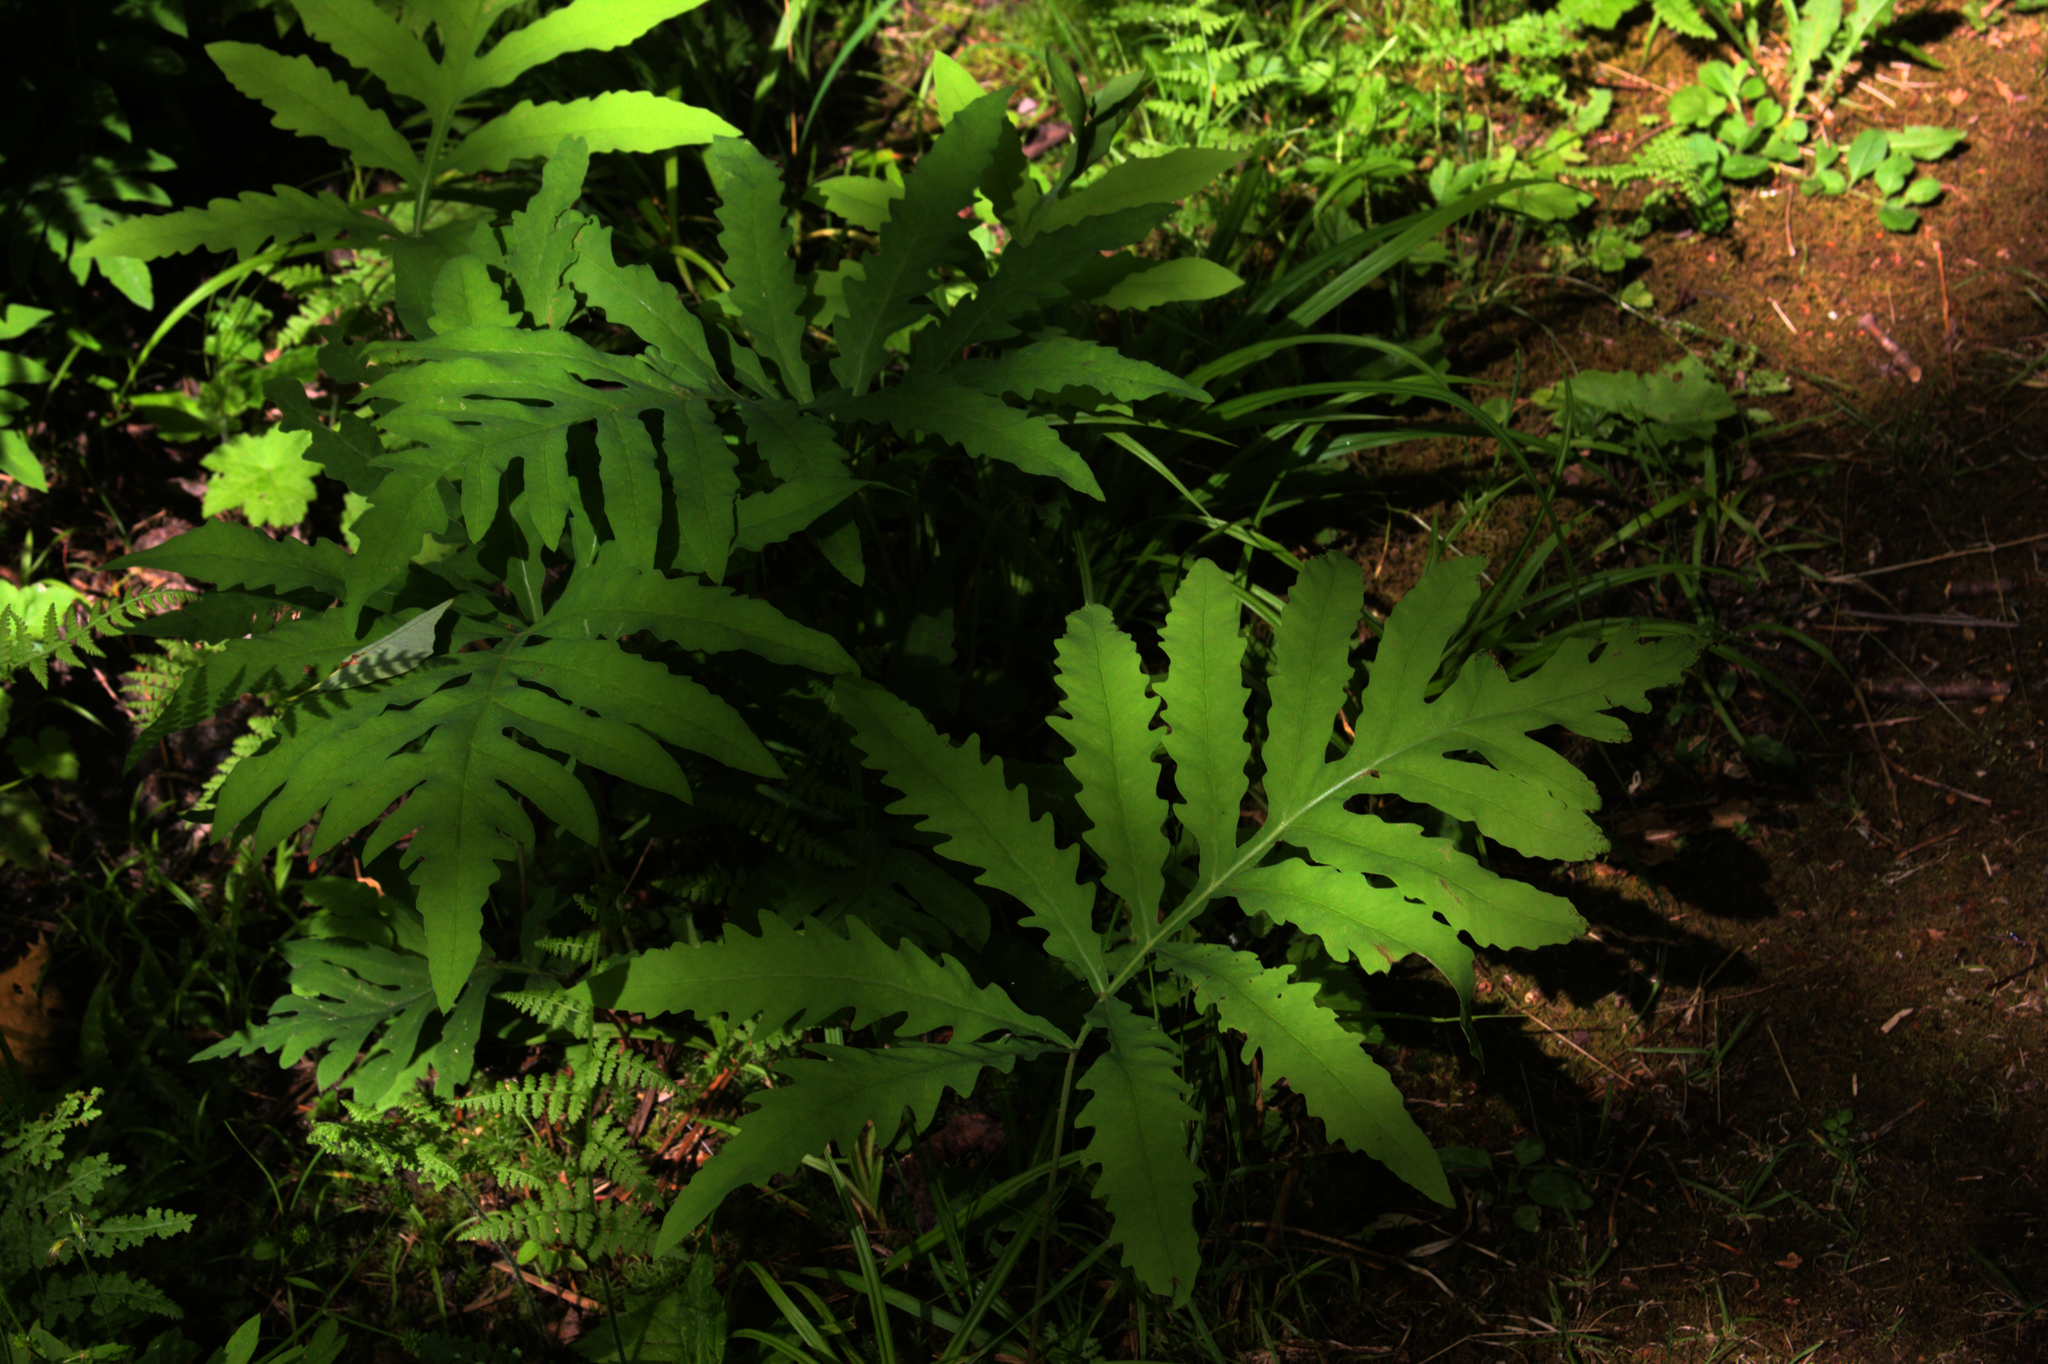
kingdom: Plantae
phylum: Tracheophyta
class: Polypodiopsida
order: Polypodiales
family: Onocleaceae
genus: Onoclea
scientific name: Onoclea sensibilis
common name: Sensitive fern
